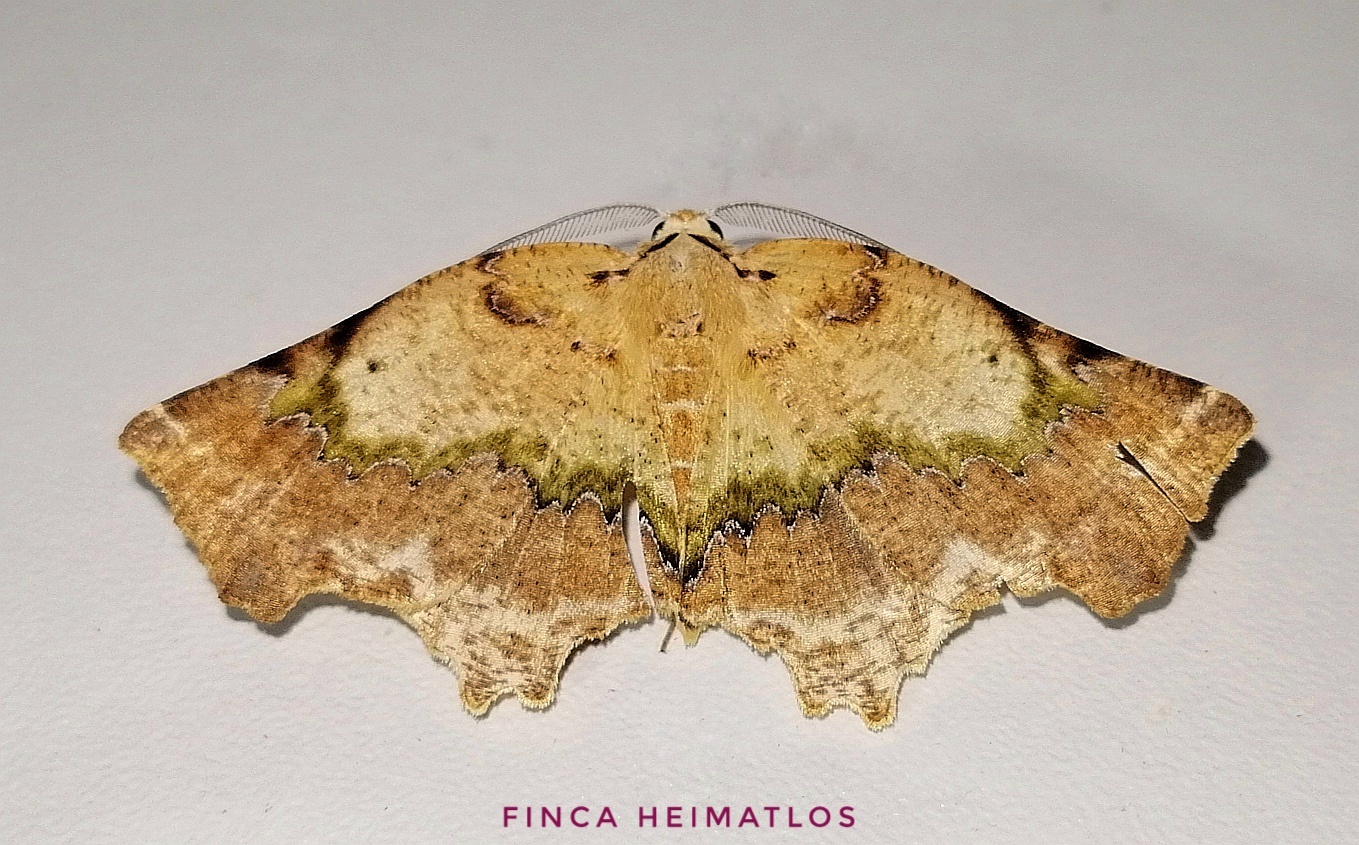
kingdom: Animalia
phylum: Arthropoda
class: Insecta
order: Lepidoptera
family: Geometridae
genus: Tmetomorpha
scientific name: Tmetomorpha bitias
